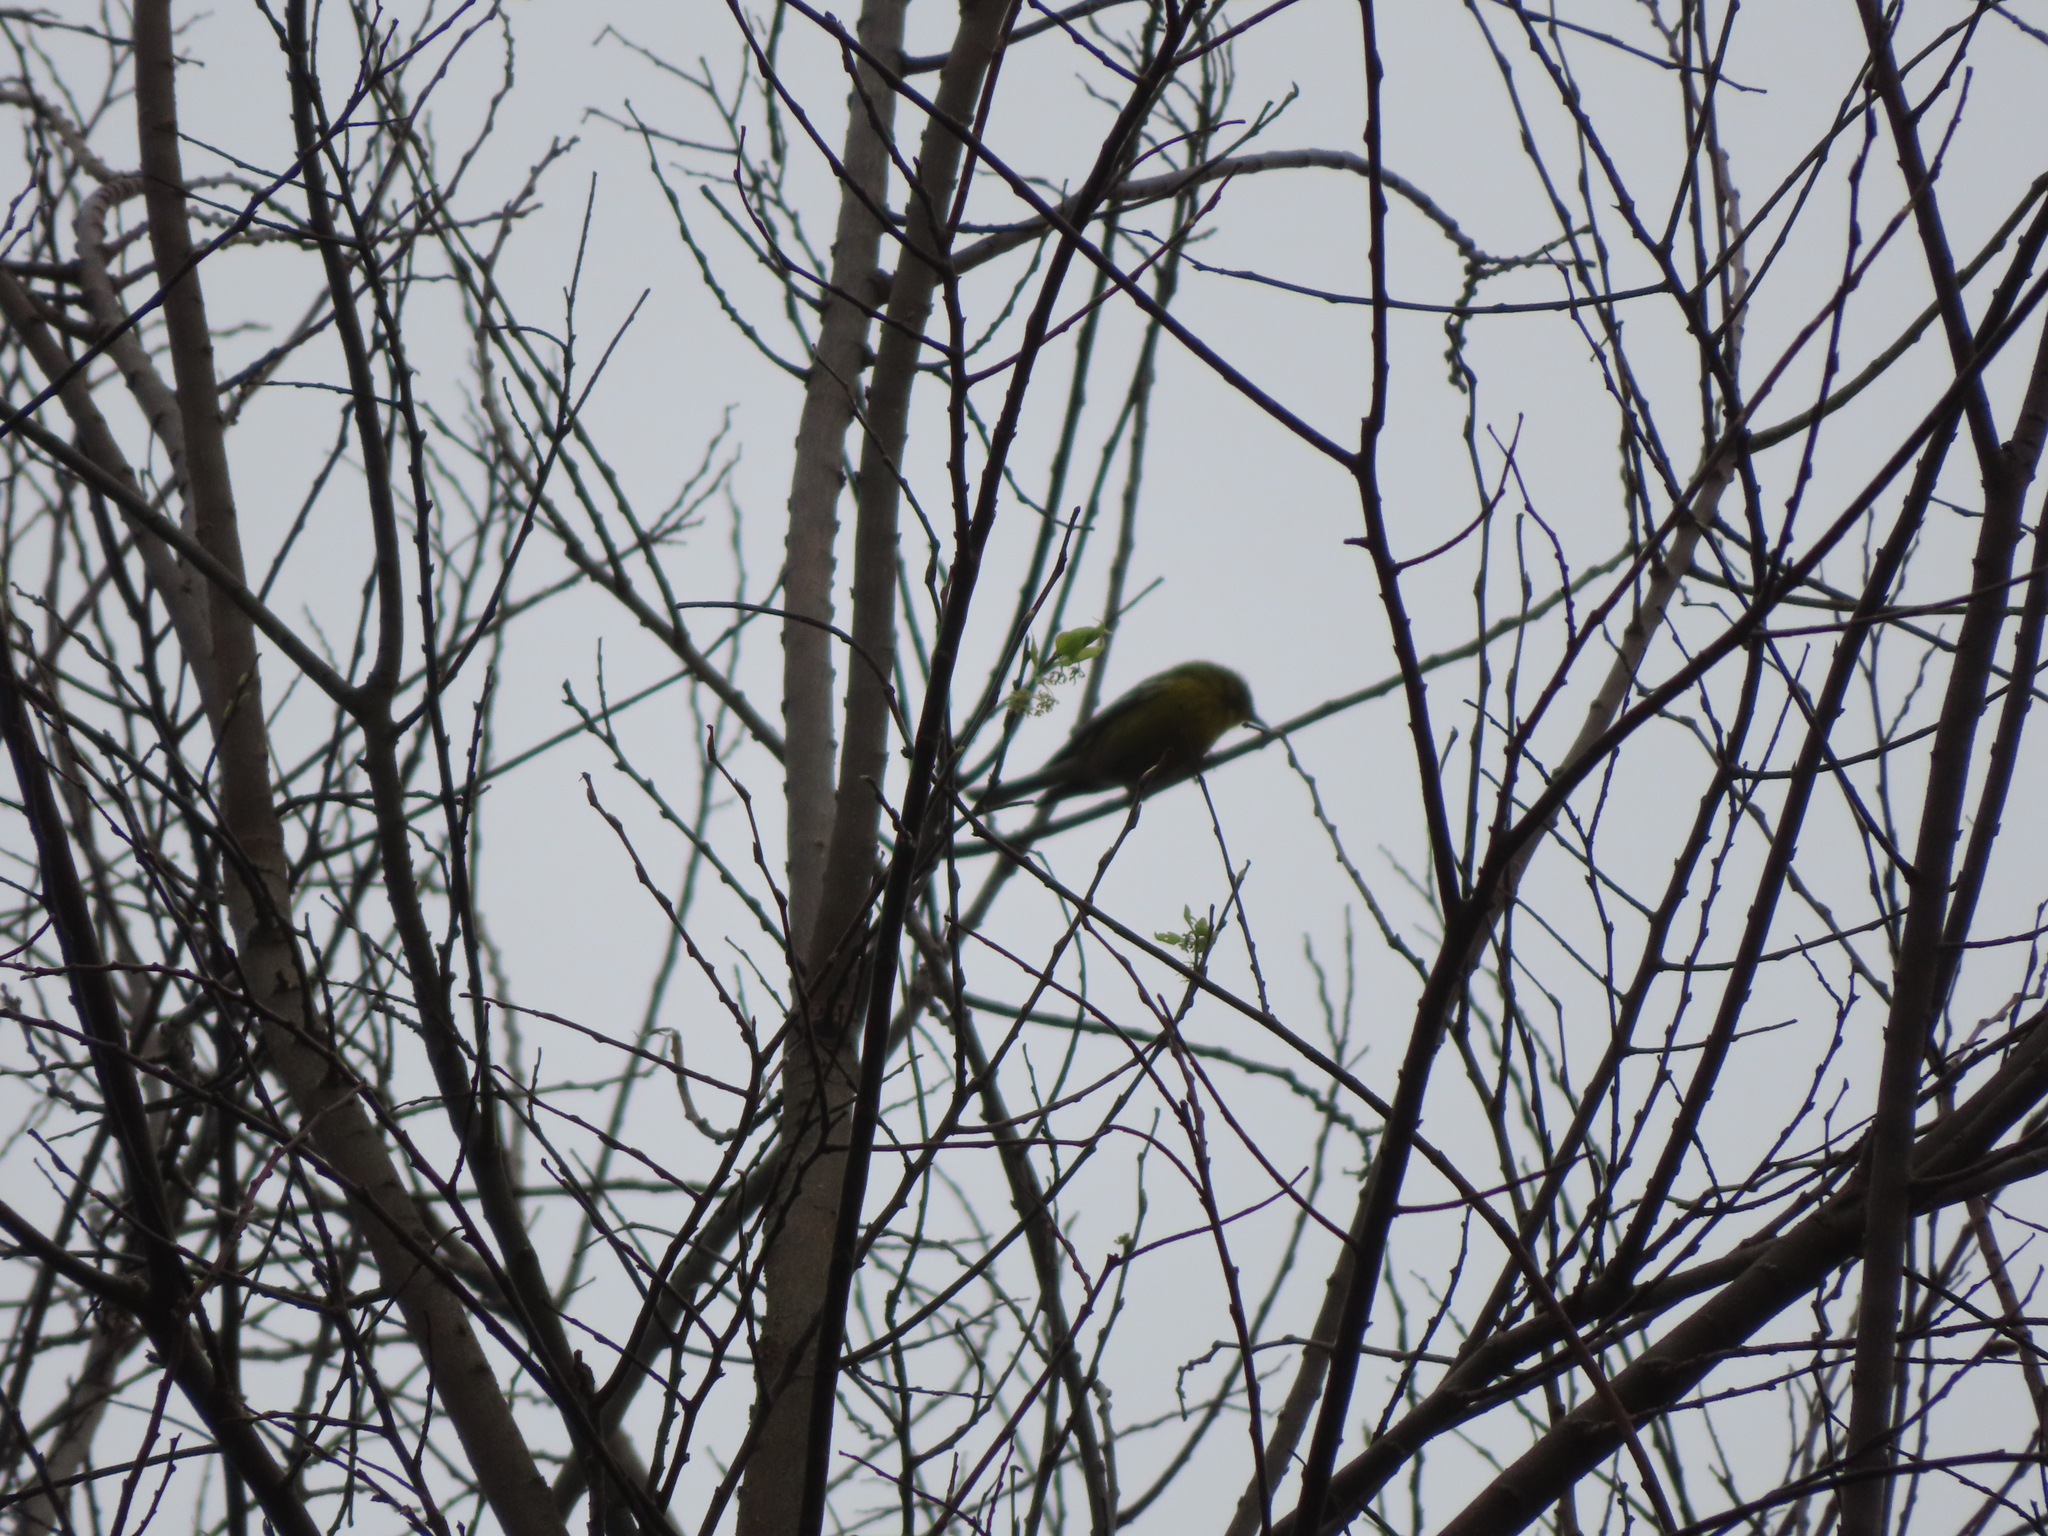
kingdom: Animalia
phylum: Chordata
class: Aves
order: Passeriformes
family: Parulidae
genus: Setophaga
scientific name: Setophaga pinus
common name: Pine warbler
